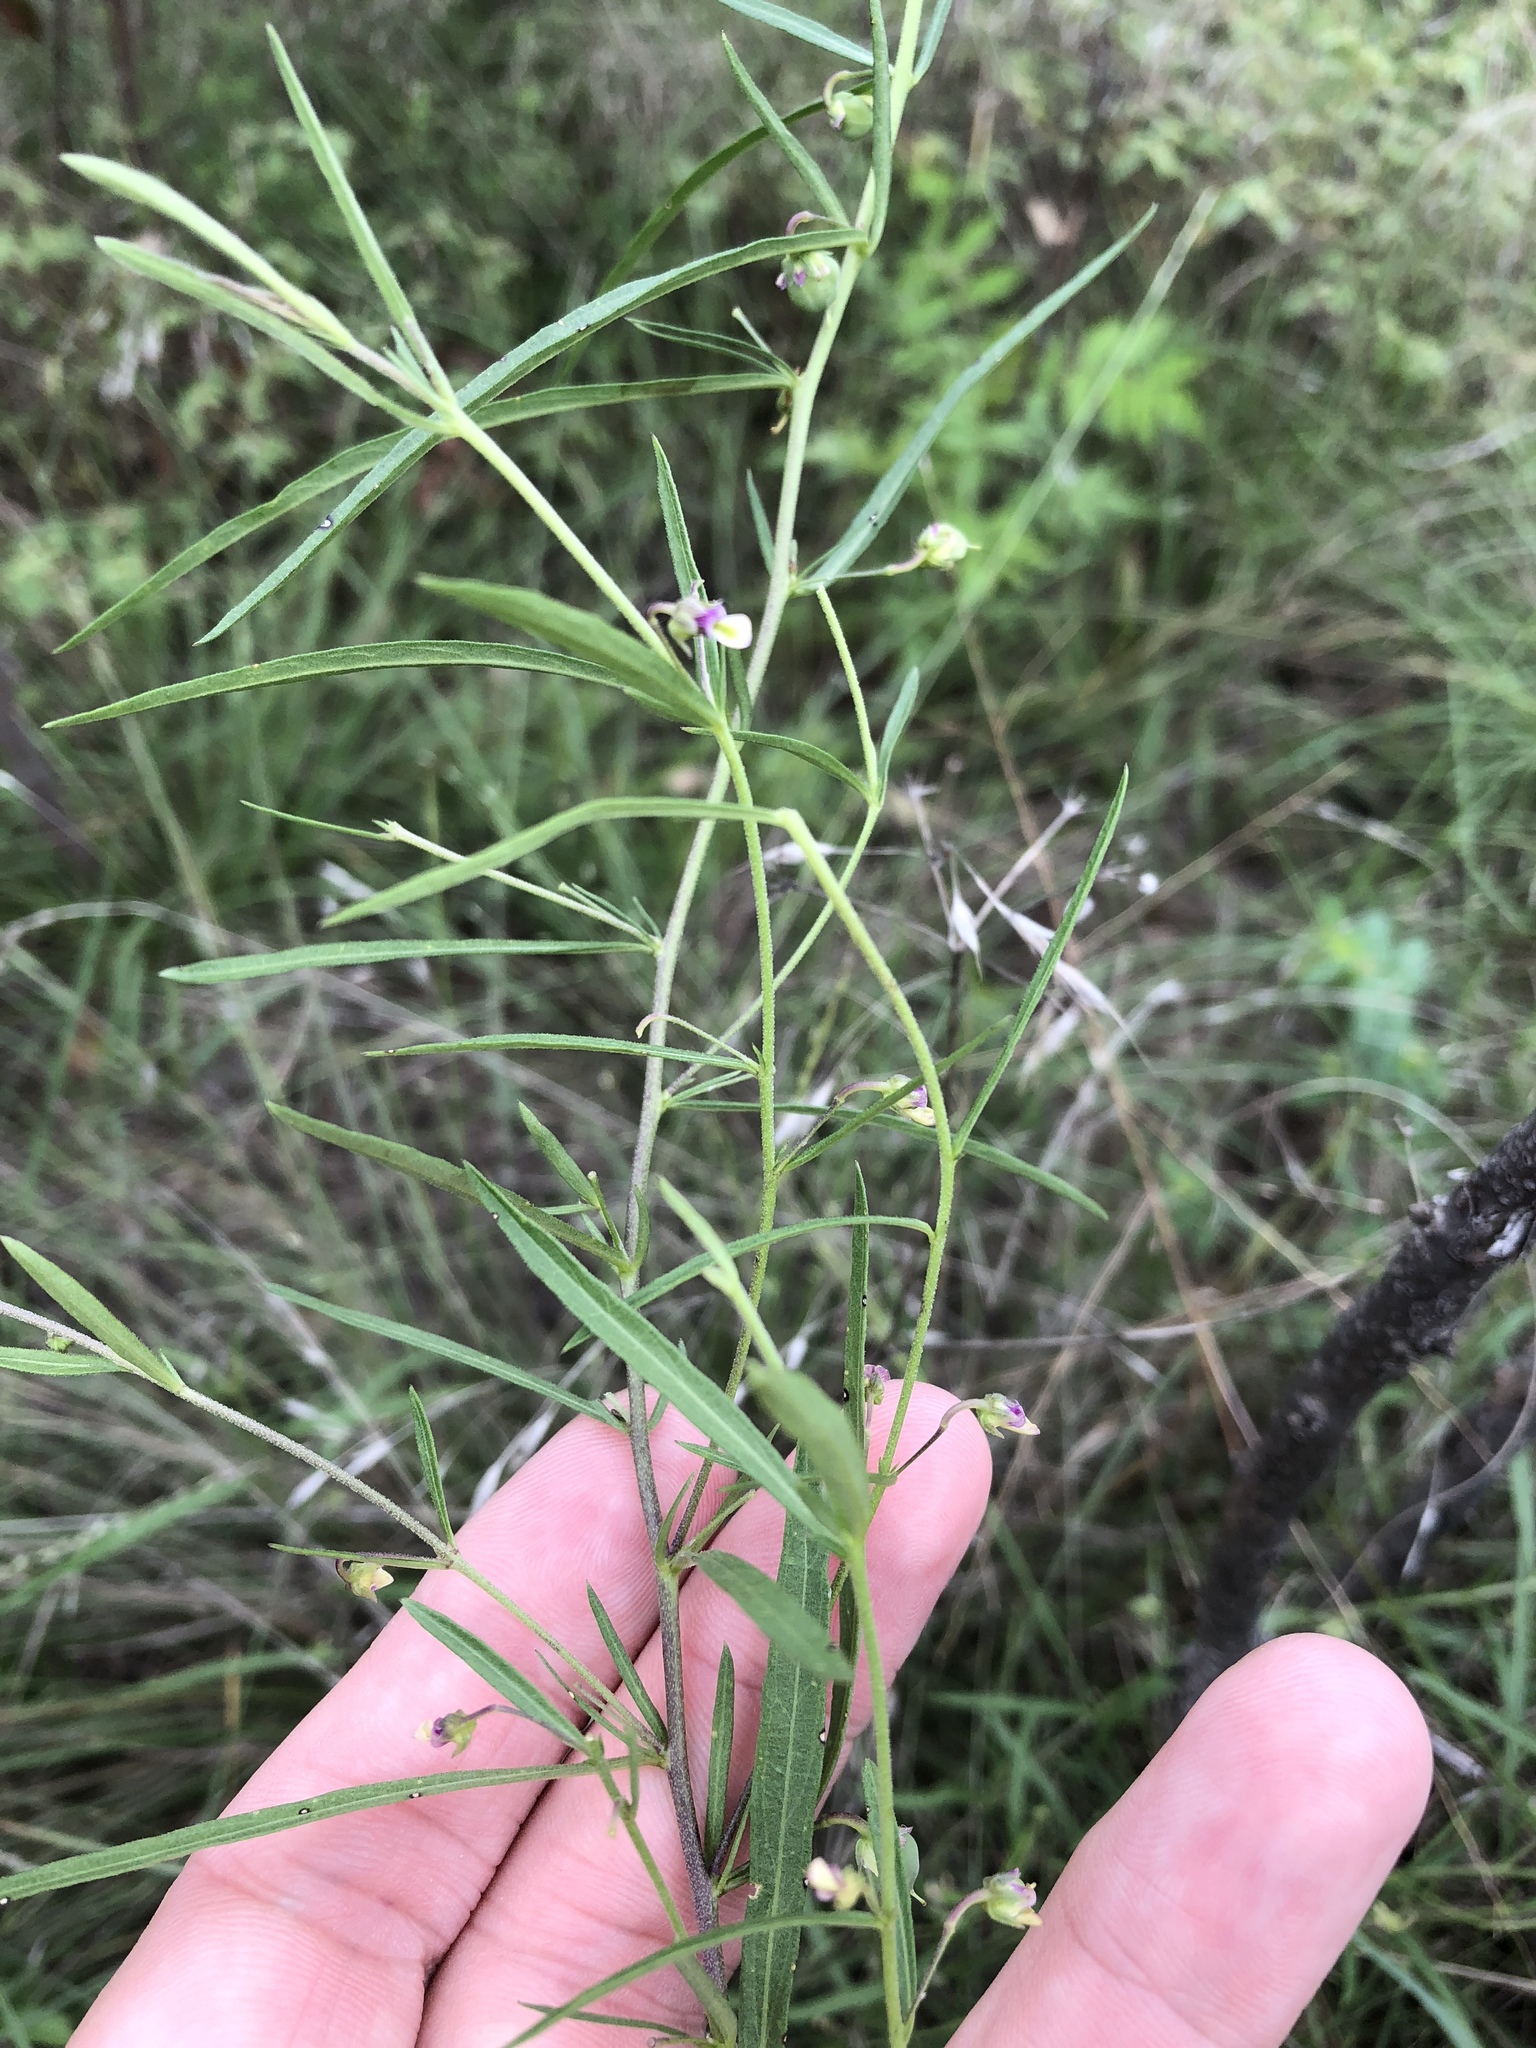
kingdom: Plantae
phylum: Tracheophyta
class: Magnoliopsida
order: Malpighiales
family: Violaceae
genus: Pombalia
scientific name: Pombalia verticillata
